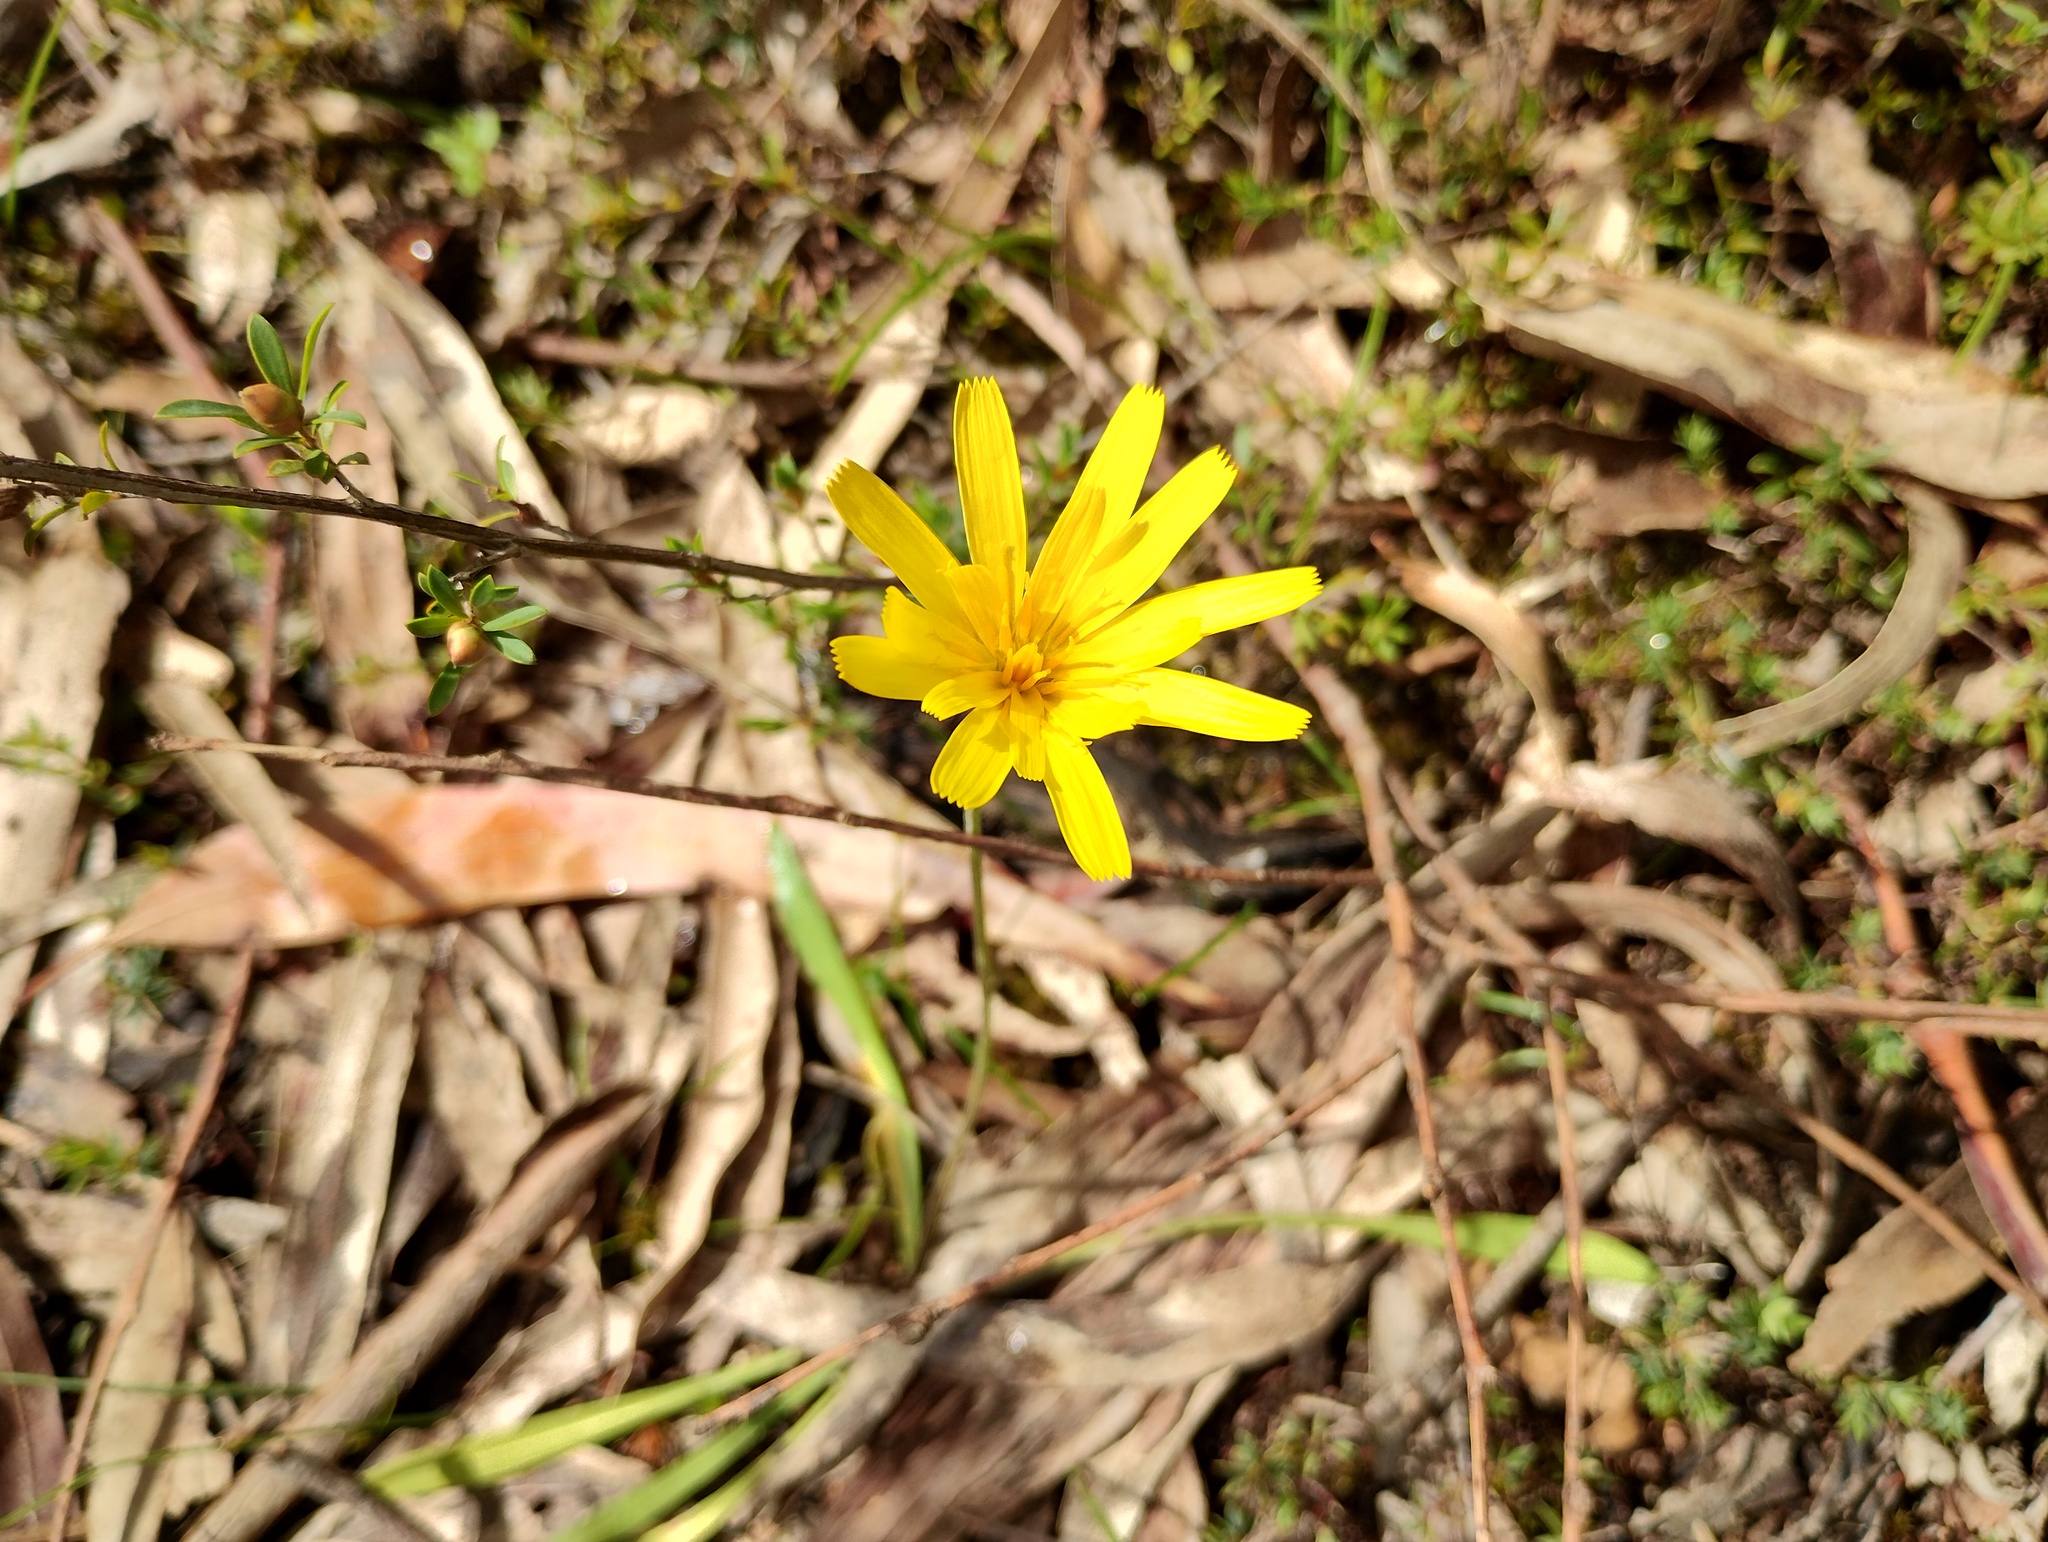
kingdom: Plantae
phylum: Tracheophyta
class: Magnoliopsida
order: Asterales
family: Asteraceae
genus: Microseris
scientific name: Microseris lanceolata
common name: Yam daisy
